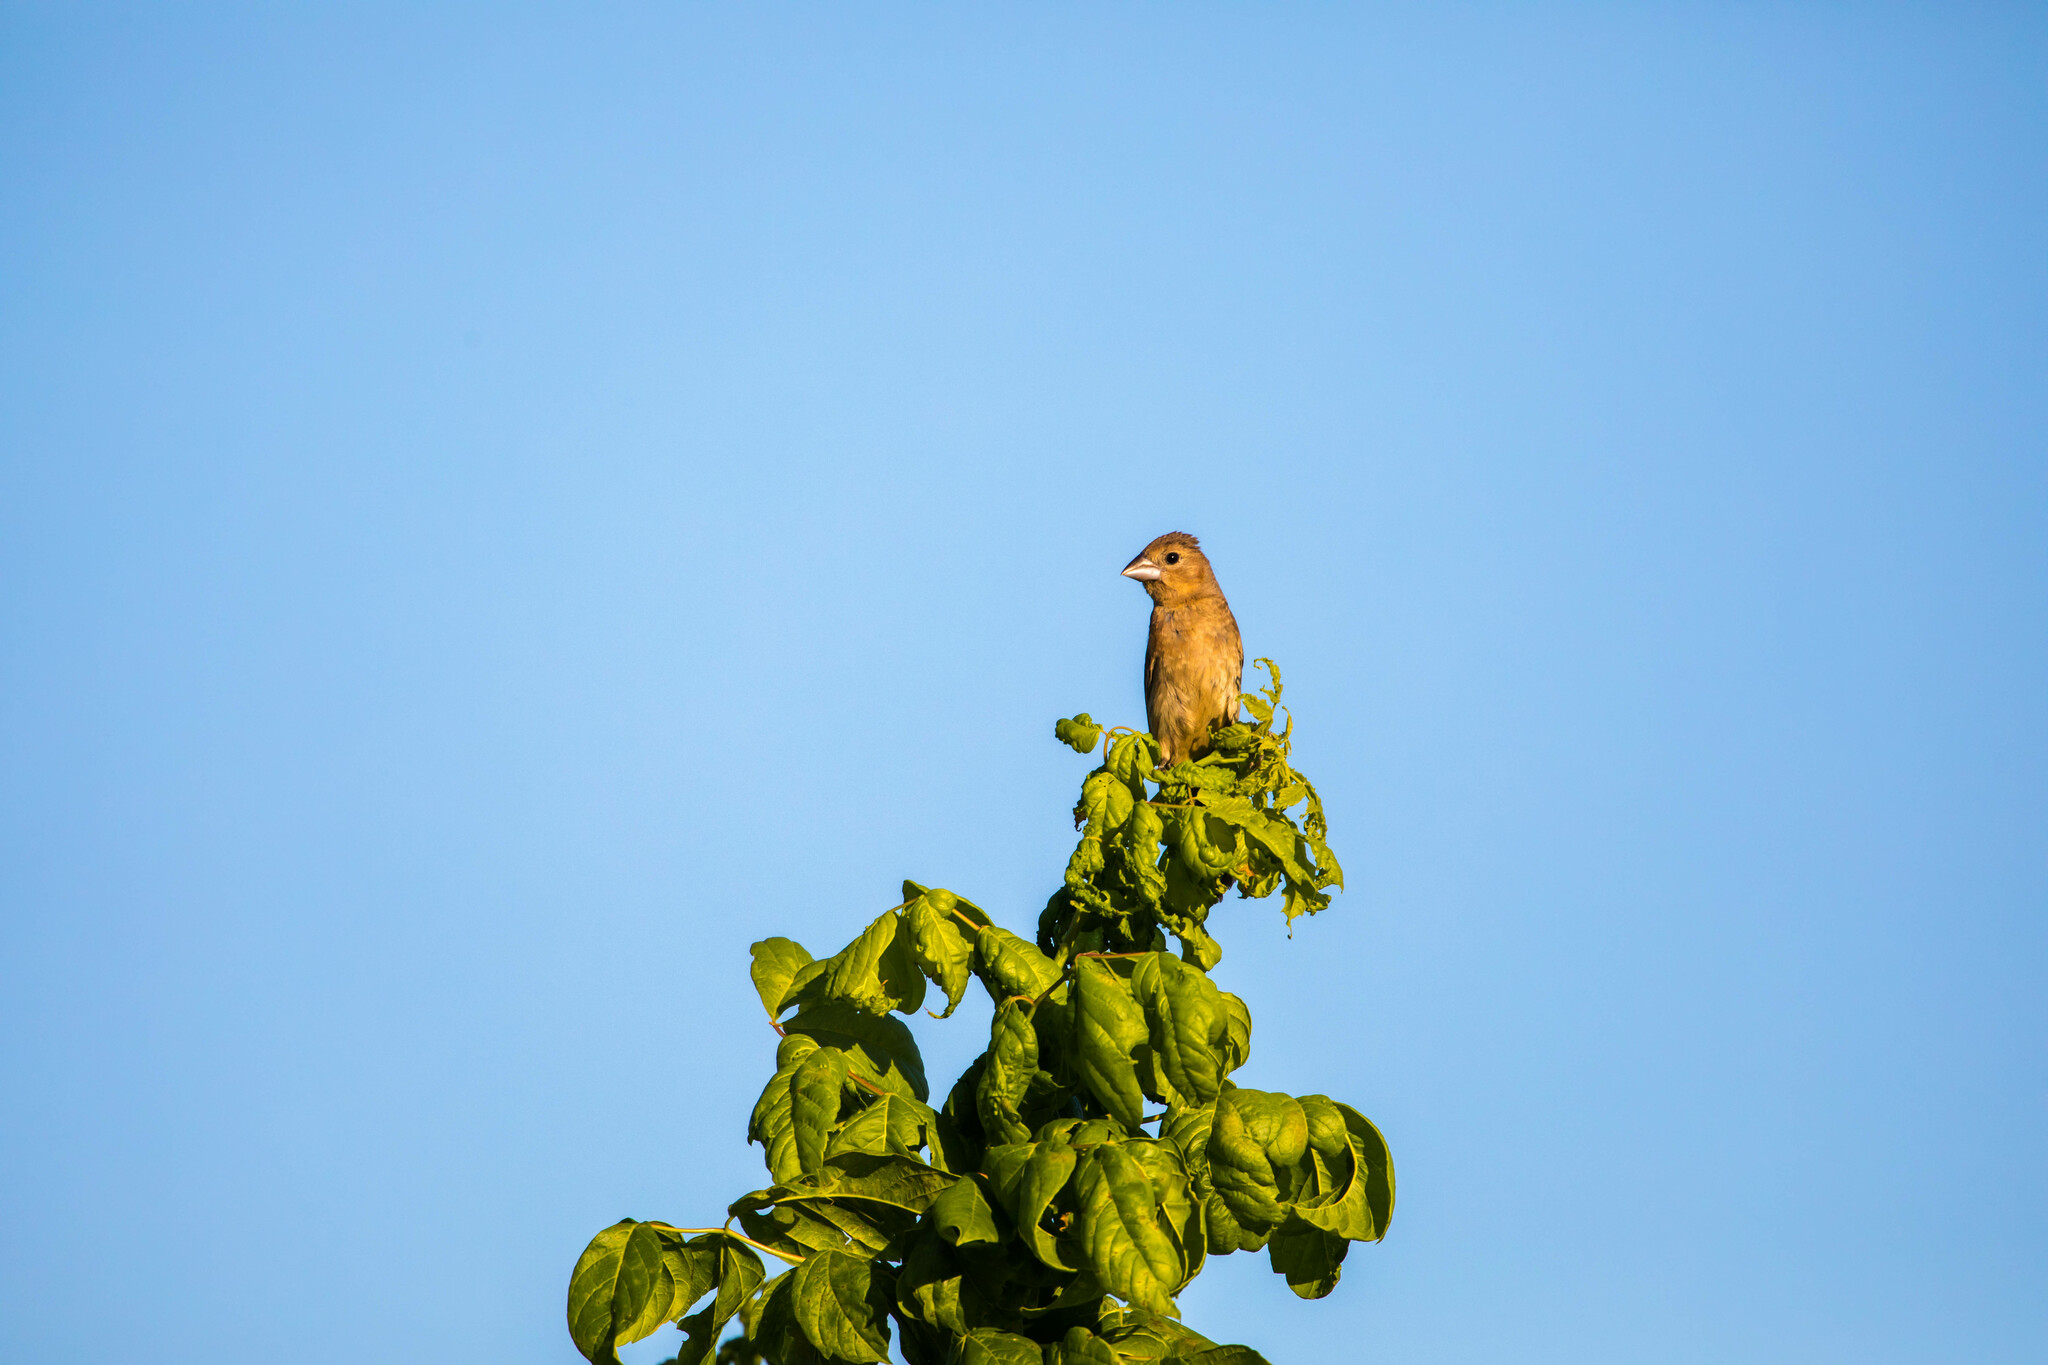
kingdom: Animalia
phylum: Chordata
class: Aves
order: Passeriformes
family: Cardinalidae
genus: Passerina
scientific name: Passerina caerulea
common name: Blue grosbeak
